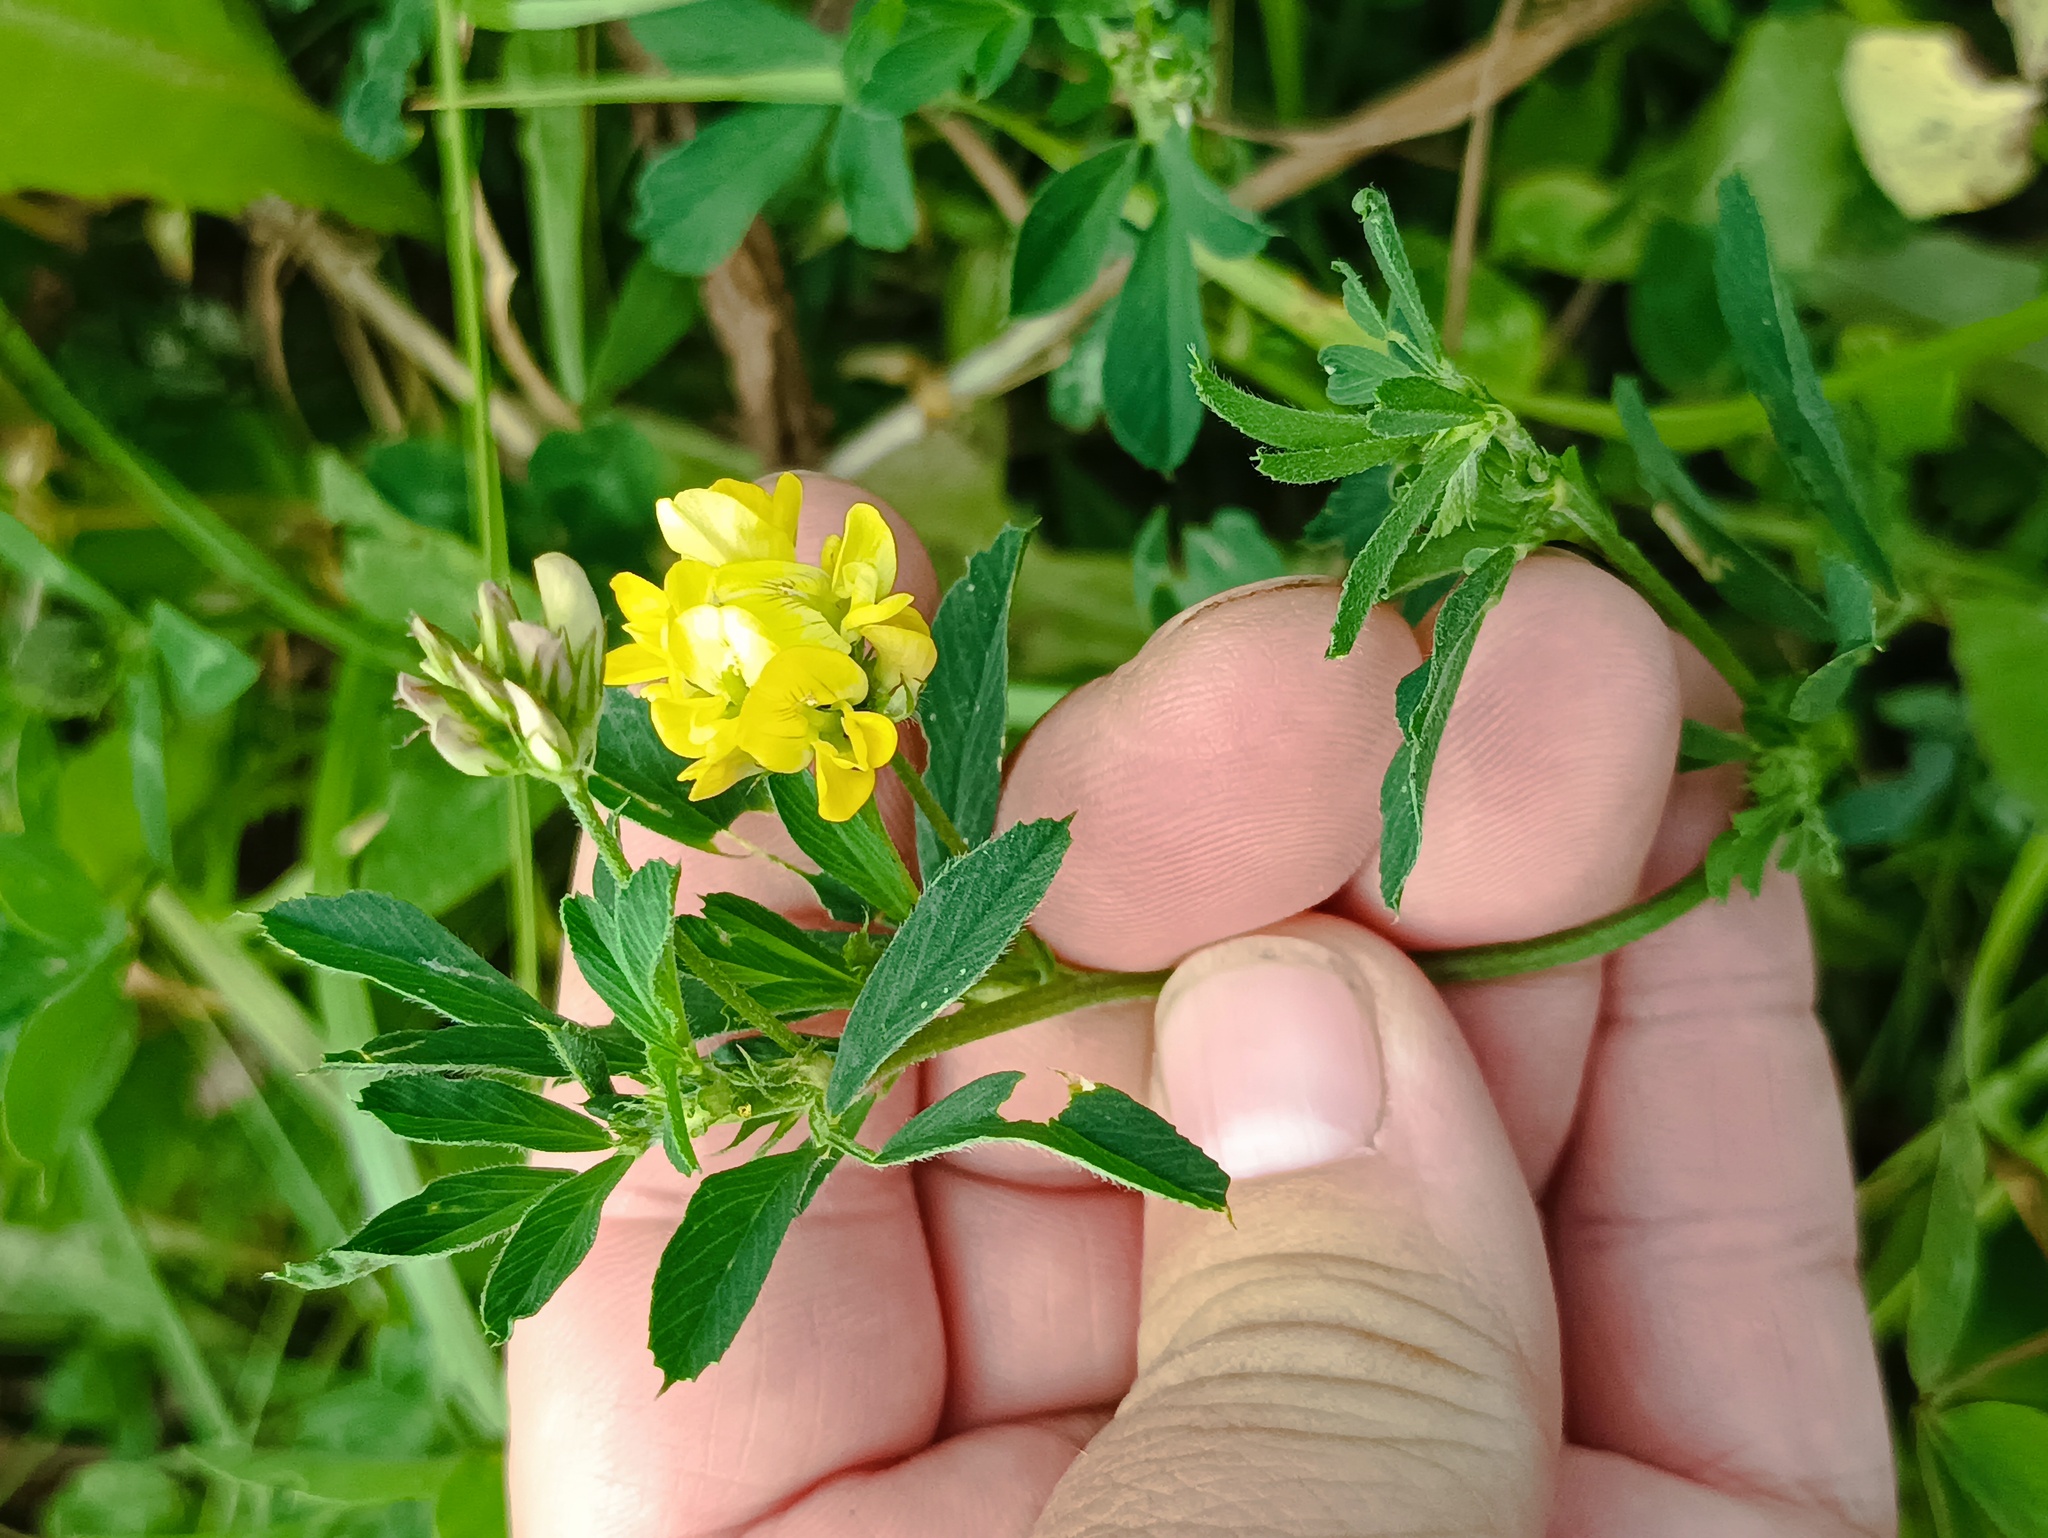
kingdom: Plantae
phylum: Tracheophyta
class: Magnoliopsida
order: Fabales
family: Fabaceae
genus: Medicago
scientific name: Medicago falcata
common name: Sickle medick
